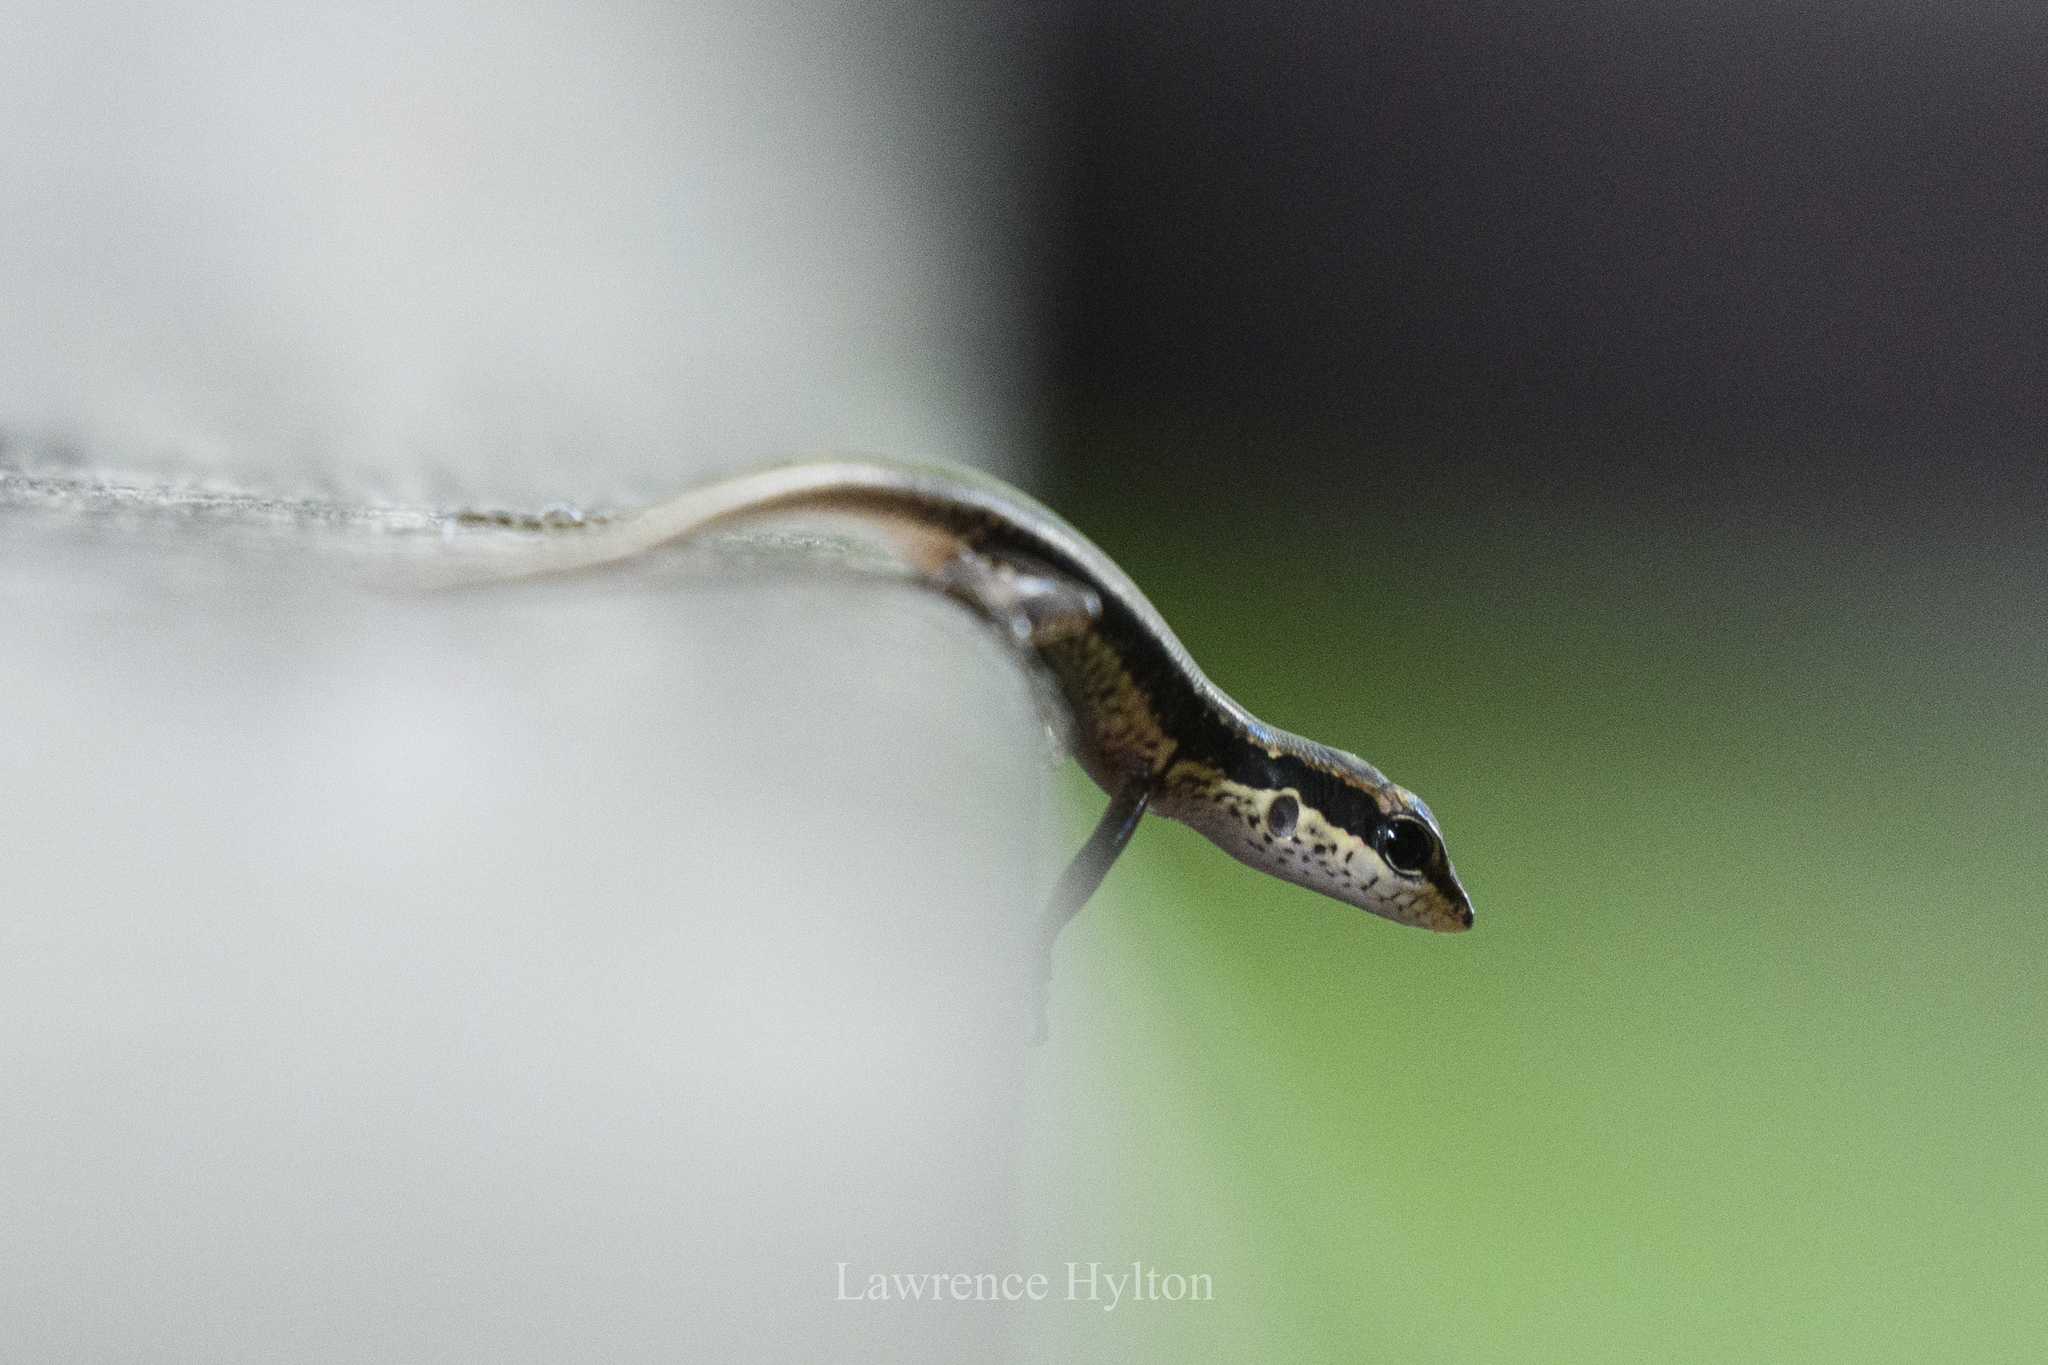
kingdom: Animalia
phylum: Chordata
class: Squamata
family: Scincidae
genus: Sphenomorphus
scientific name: Sphenomorphus maculatus
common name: Maculated forest skink
